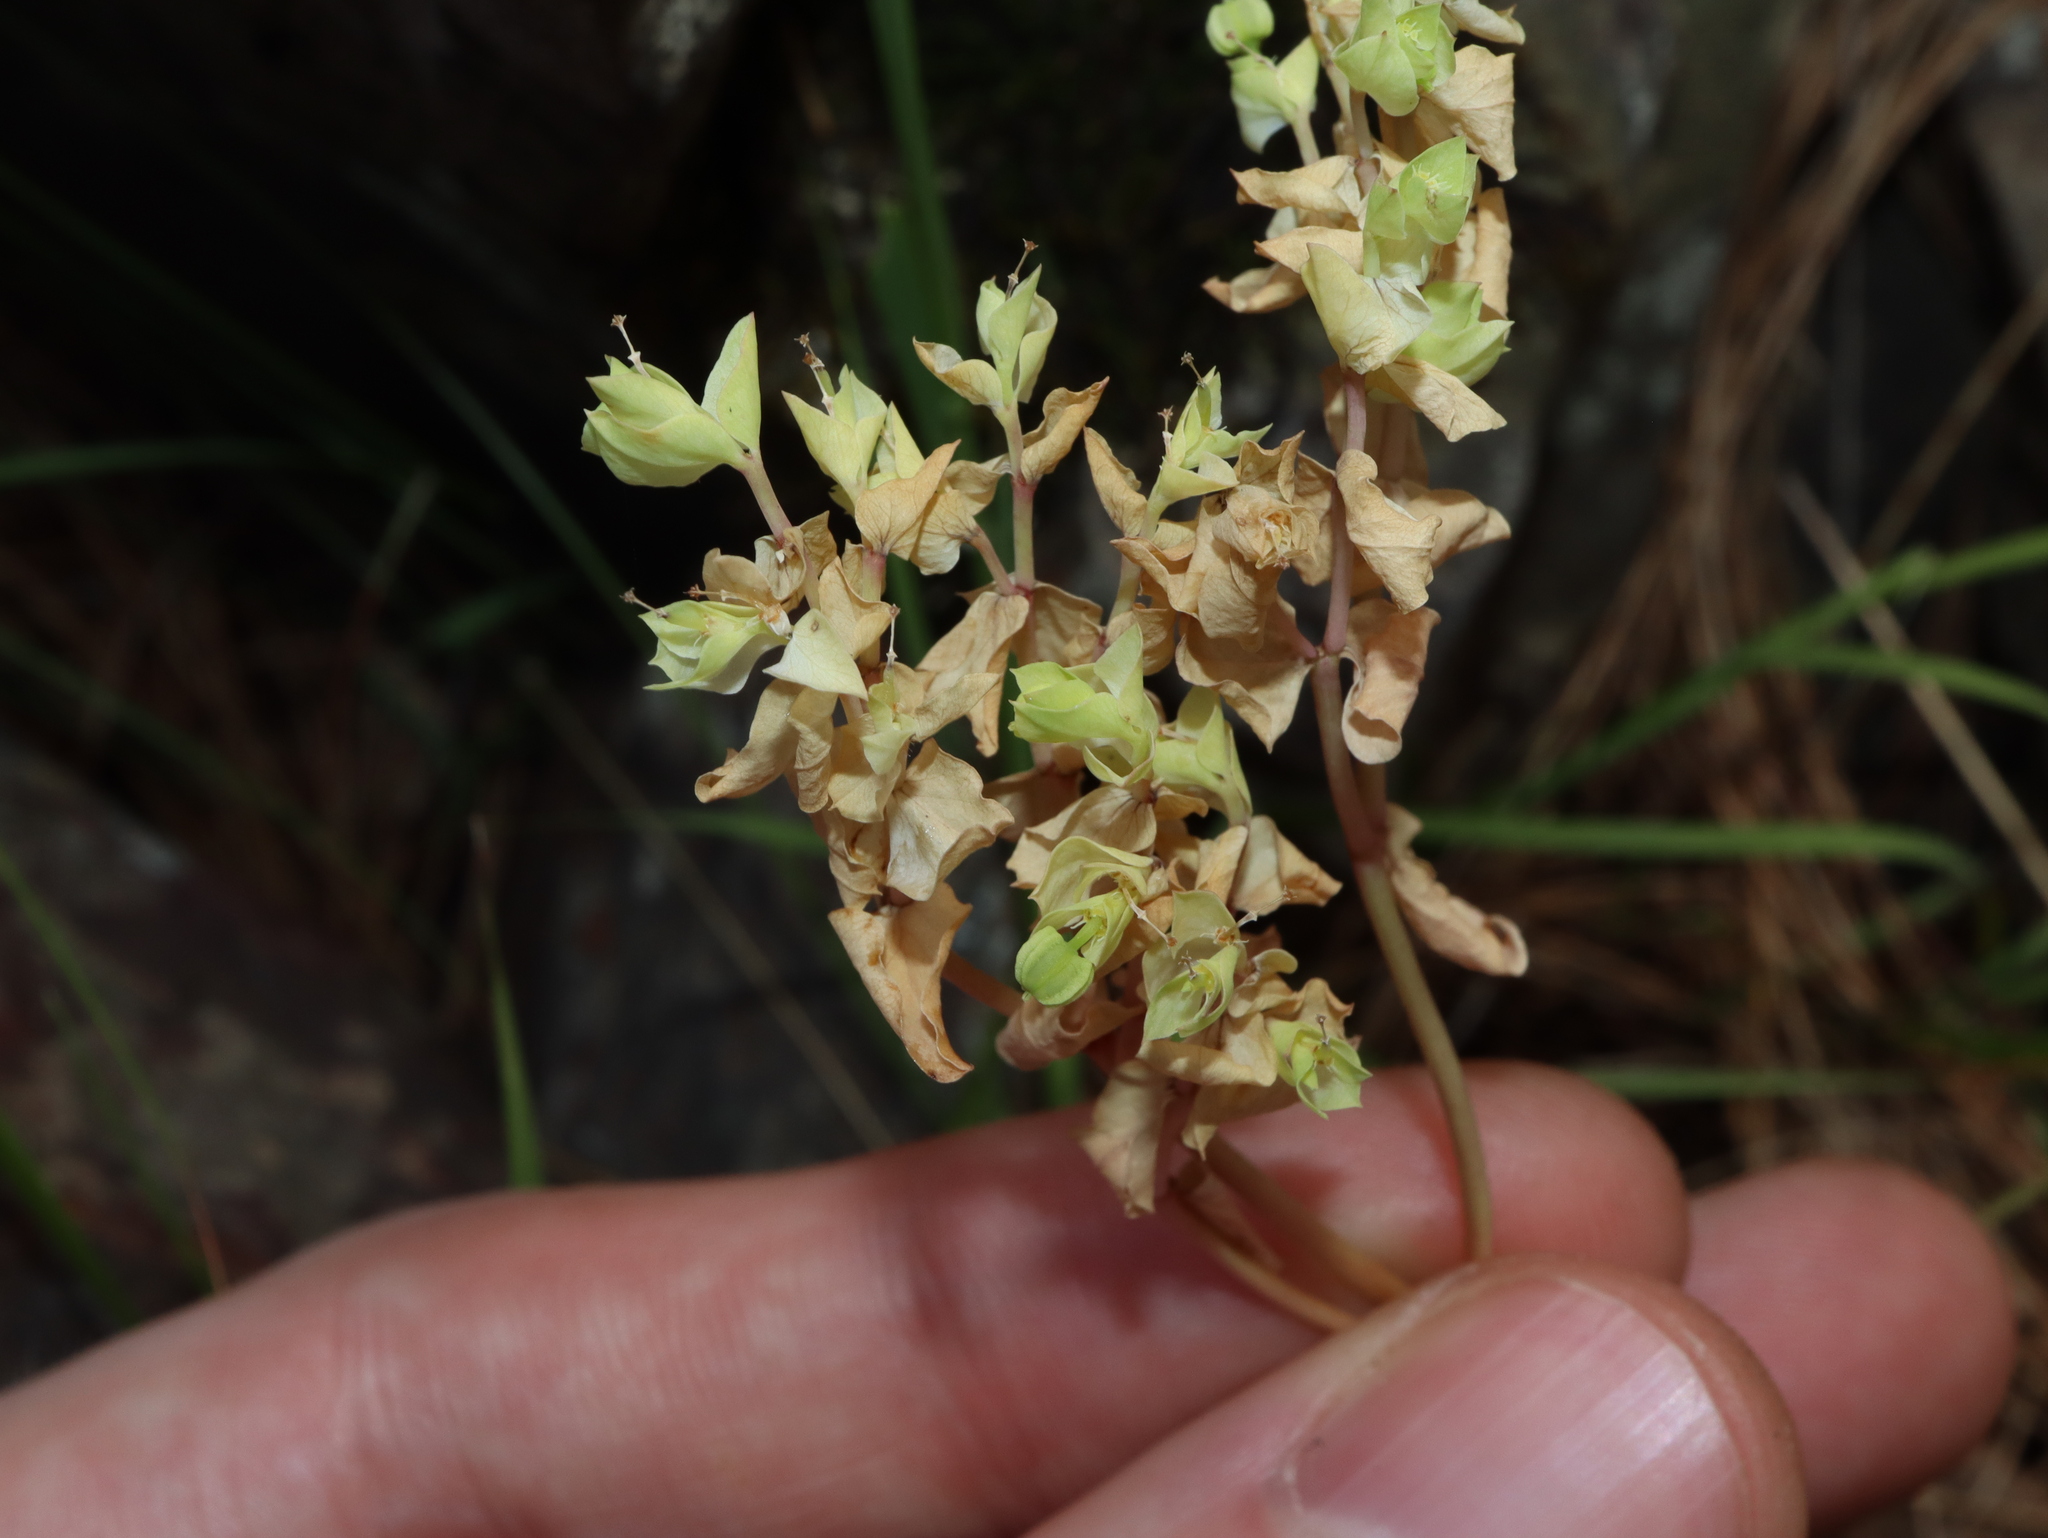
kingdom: Plantae
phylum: Tracheophyta
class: Magnoliopsida
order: Malpighiales
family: Euphorbiaceae
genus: Euphorbia
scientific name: Euphorbia peplus
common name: Petty spurge
